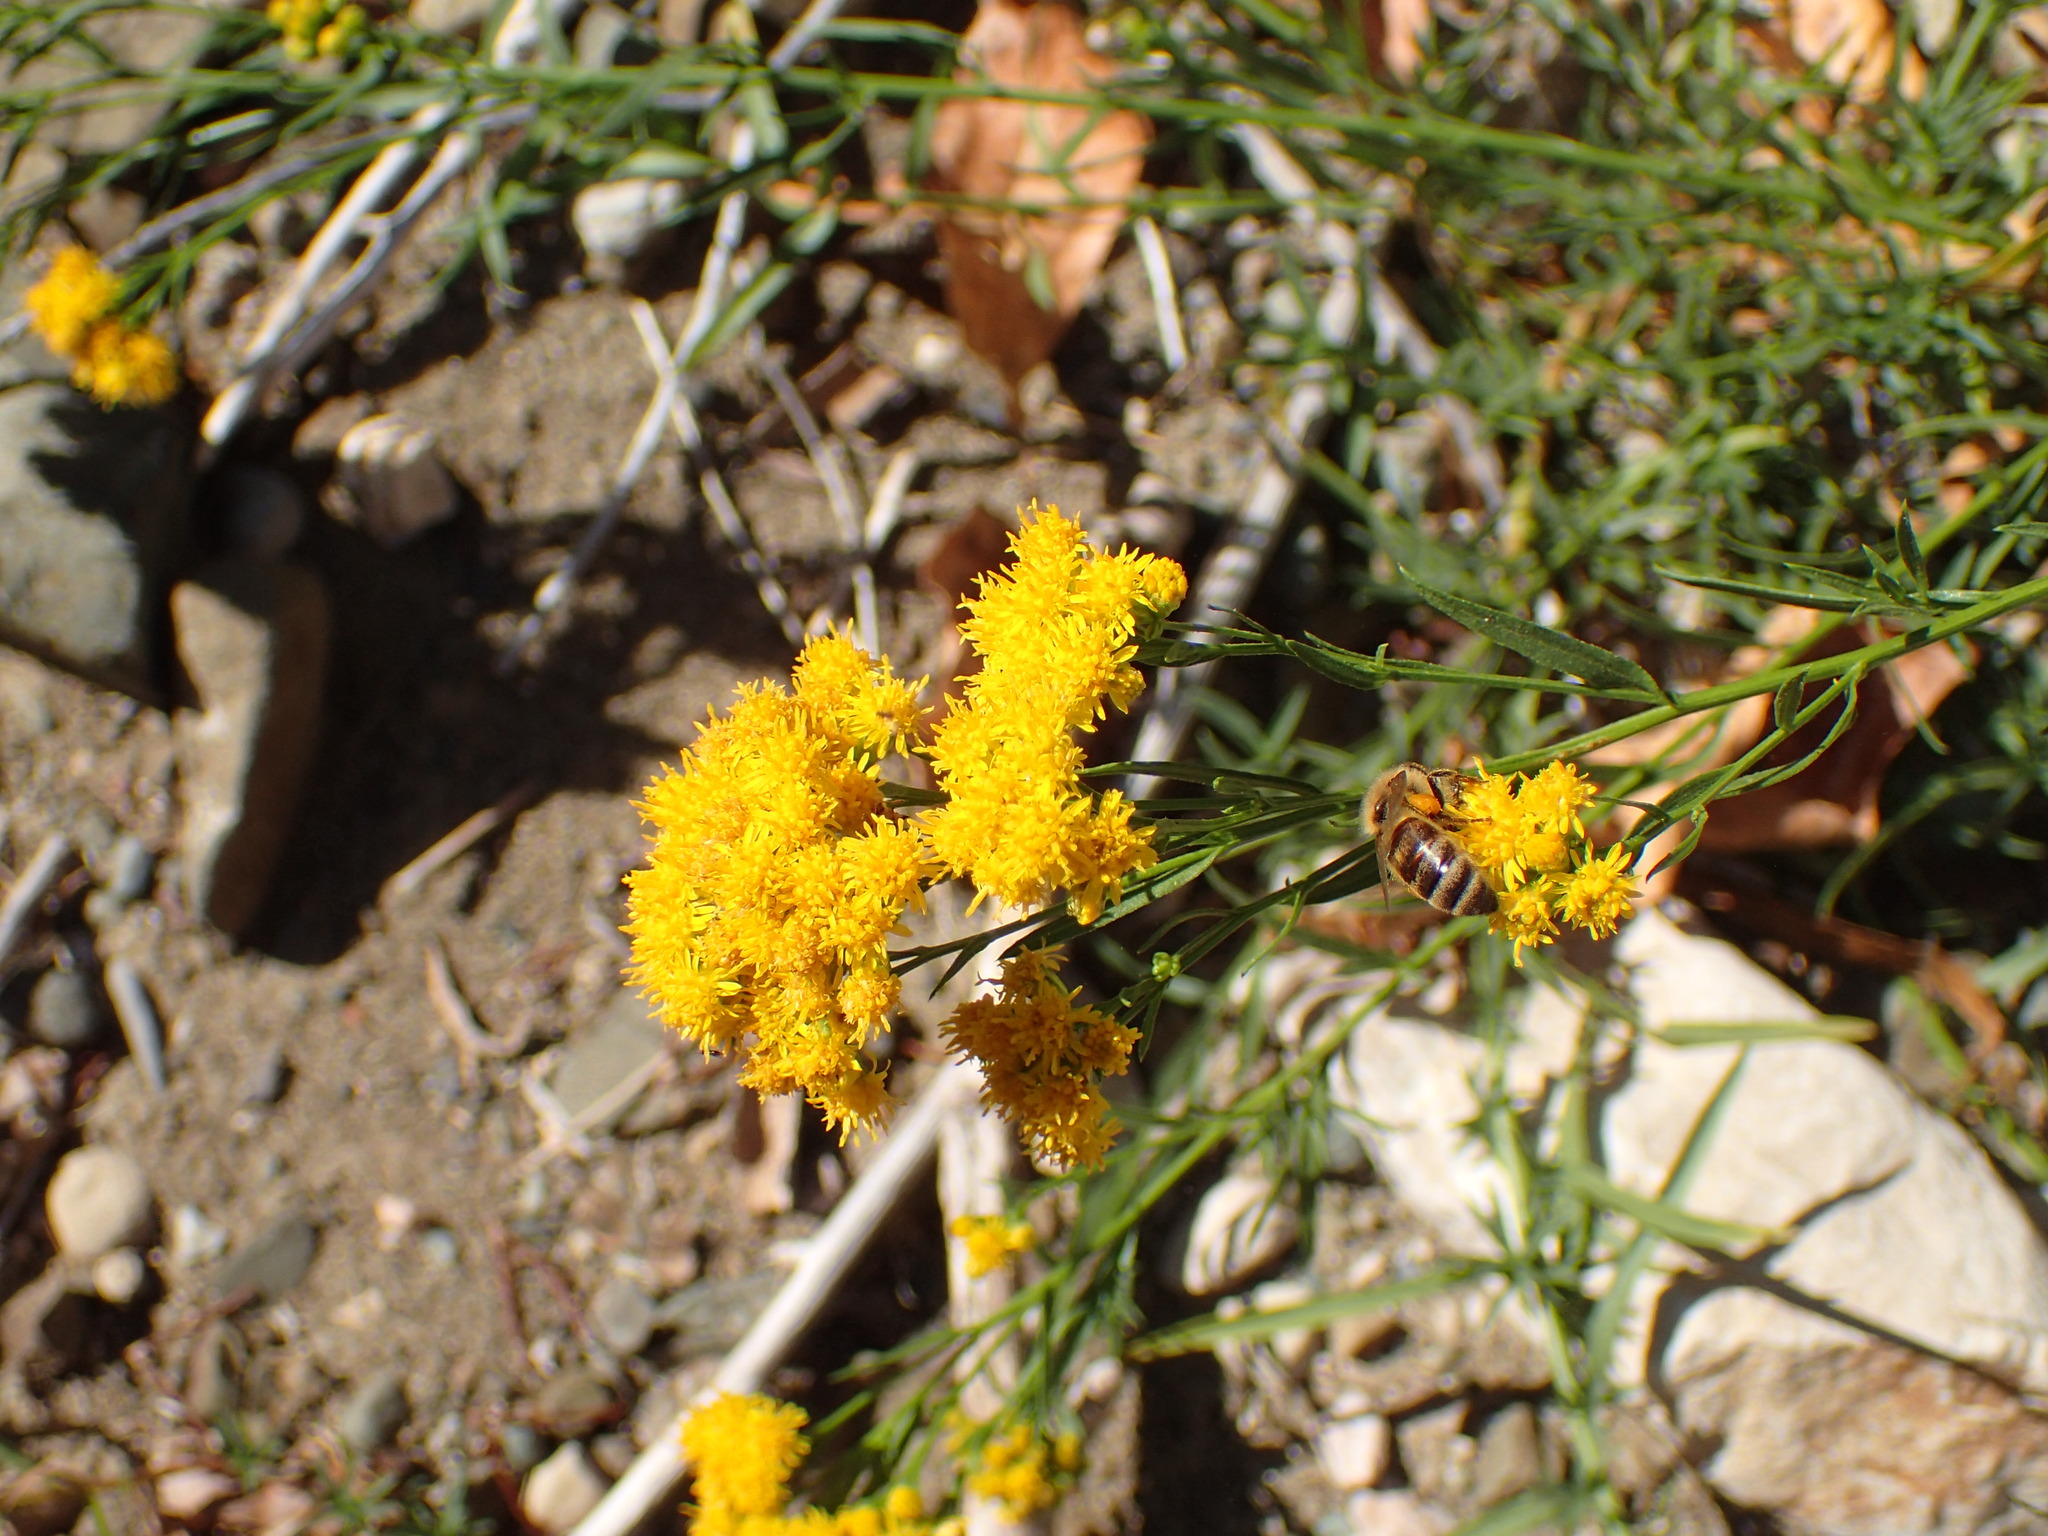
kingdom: Plantae
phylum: Tracheophyta
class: Magnoliopsida
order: Asterales
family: Asteraceae
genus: Euthamia
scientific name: Euthamia occidentalis
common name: Western goldentop
